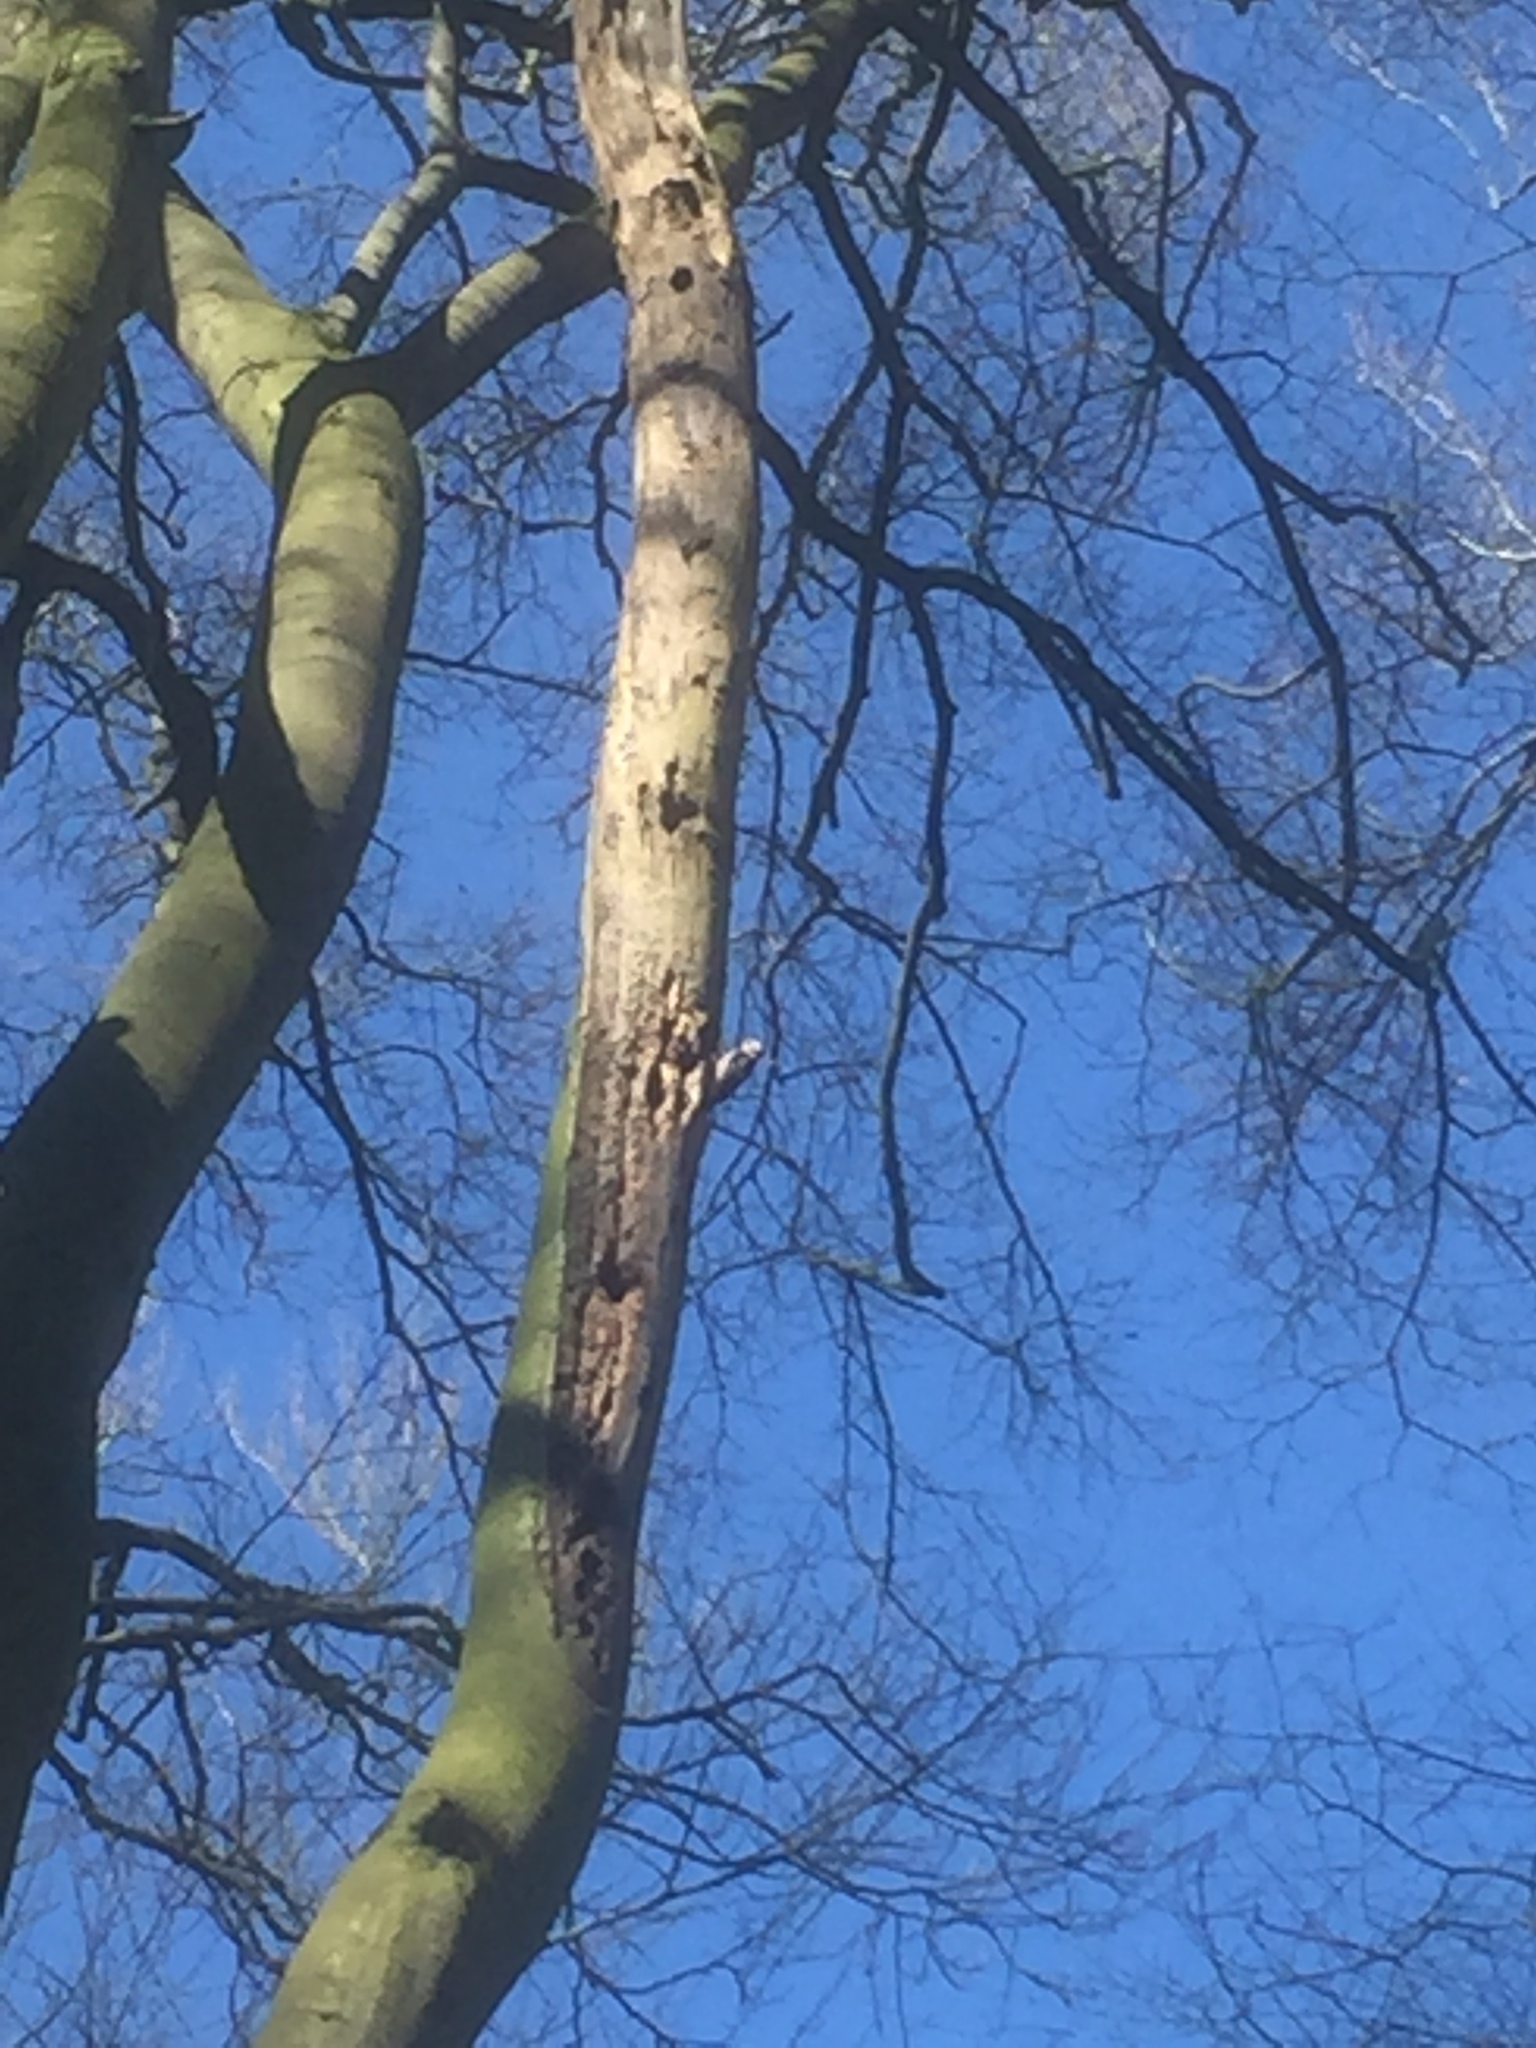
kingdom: Animalia
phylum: Chordata
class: Aves
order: Piciformes
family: Picidae
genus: Dendrocoptes
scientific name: Dendrocoptes medius
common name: Middle spotted woodpecker
